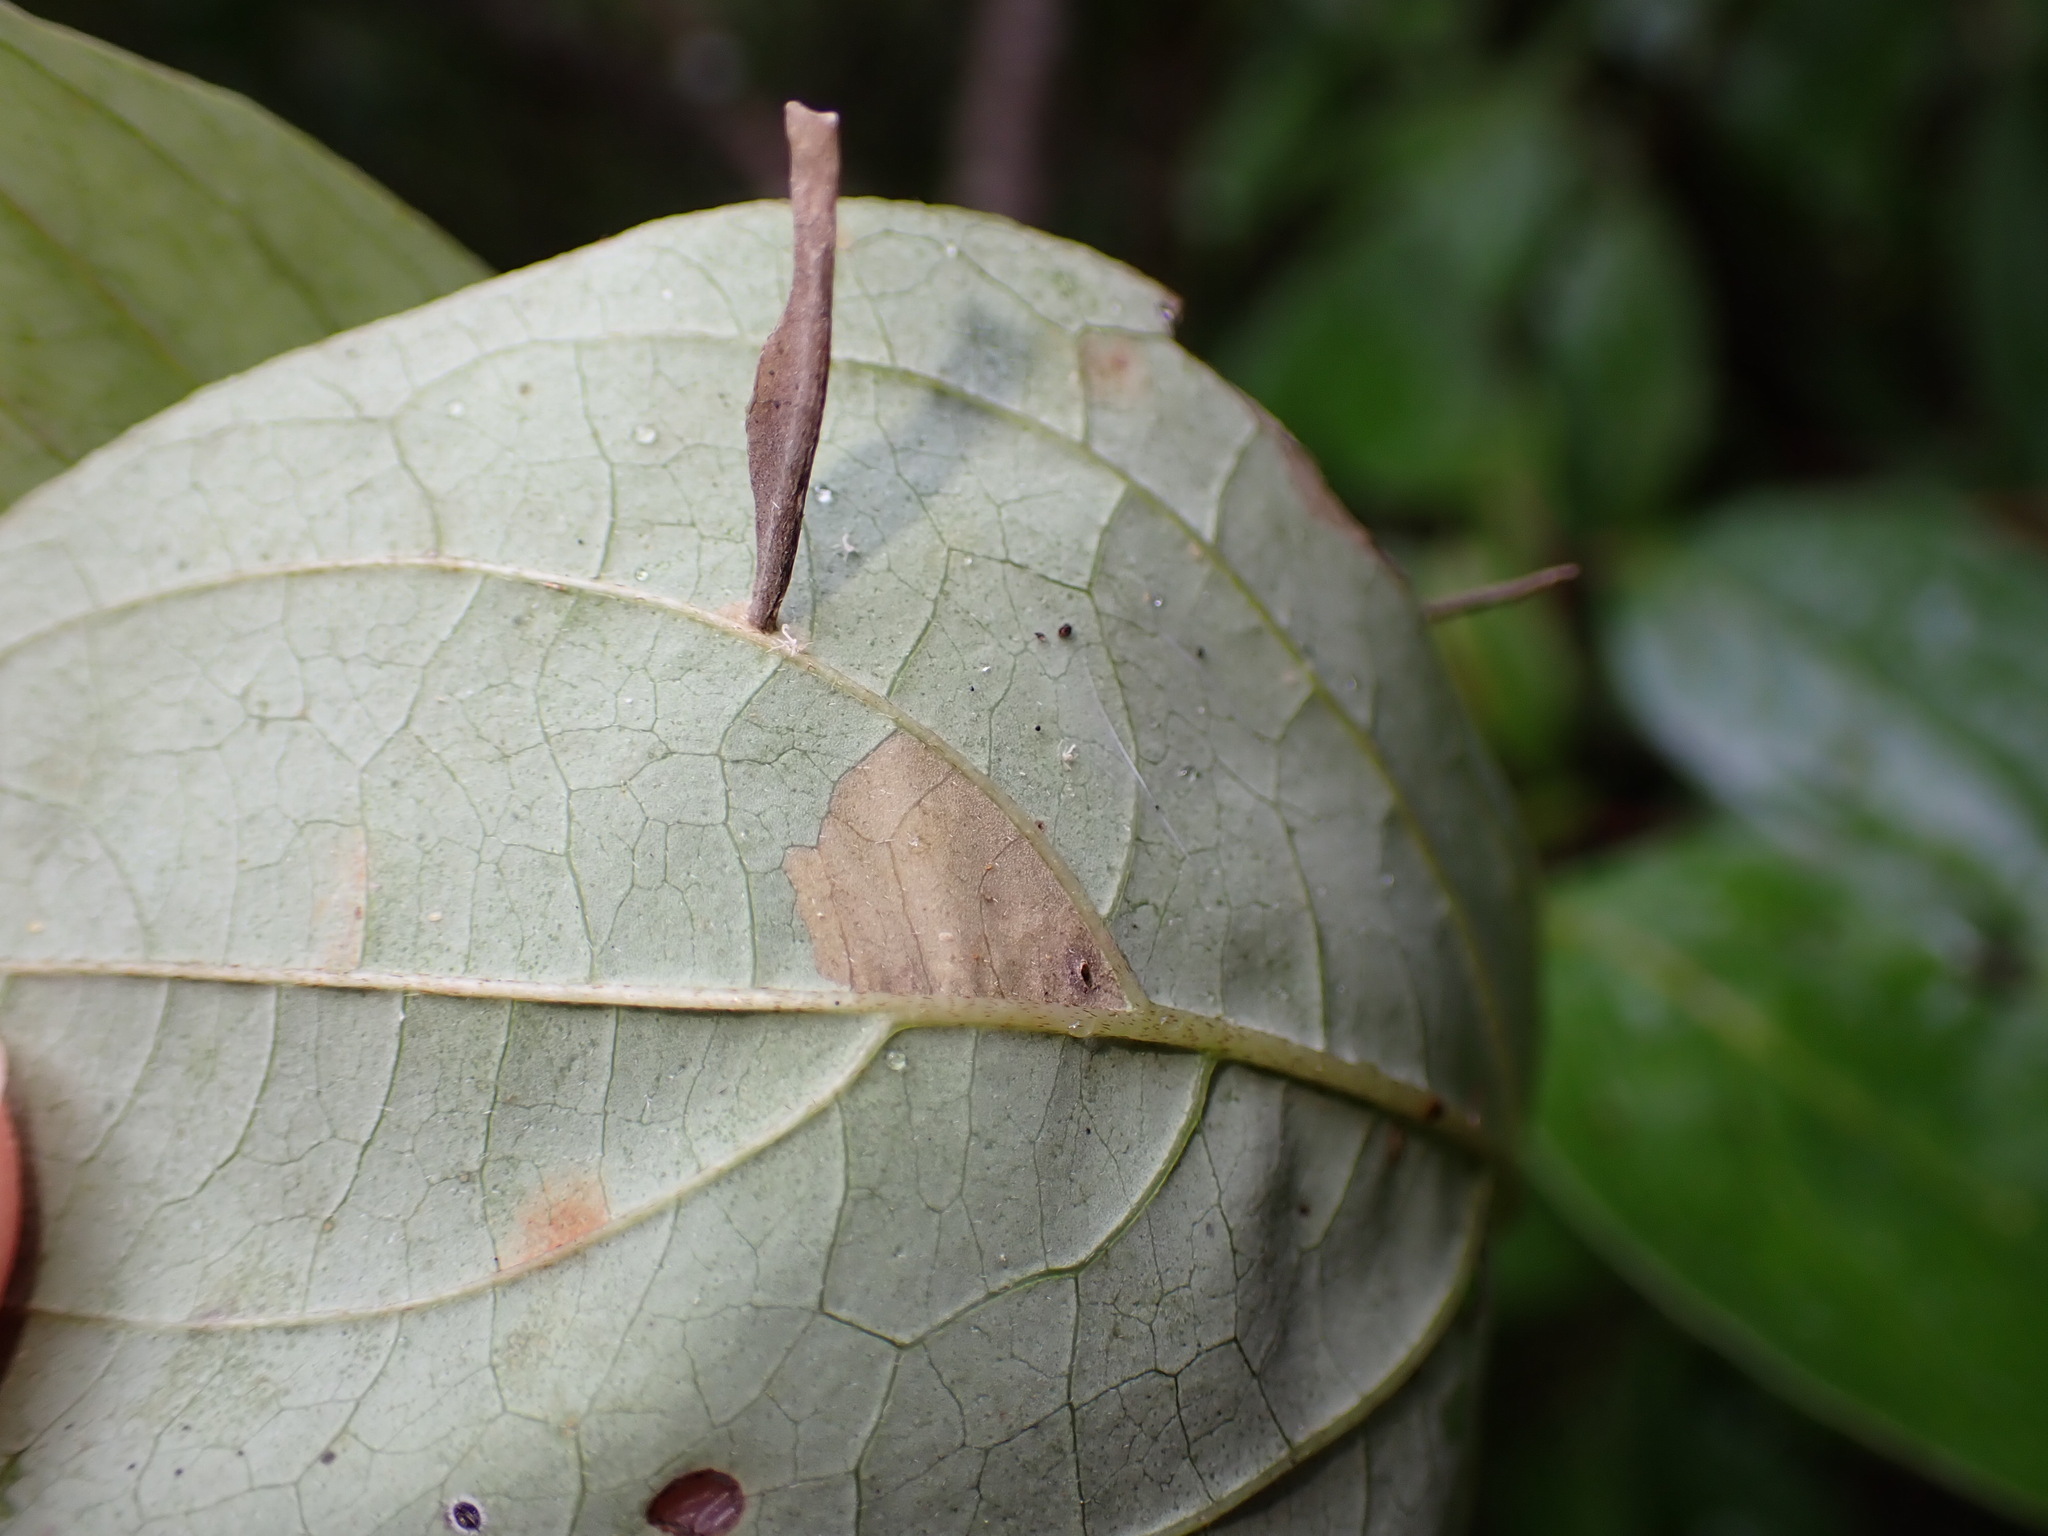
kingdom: Animalia
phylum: Arthropoda
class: Insecta
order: Lepidoptera
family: Coleophoridae
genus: Coleophora
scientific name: Coleophora cornella
